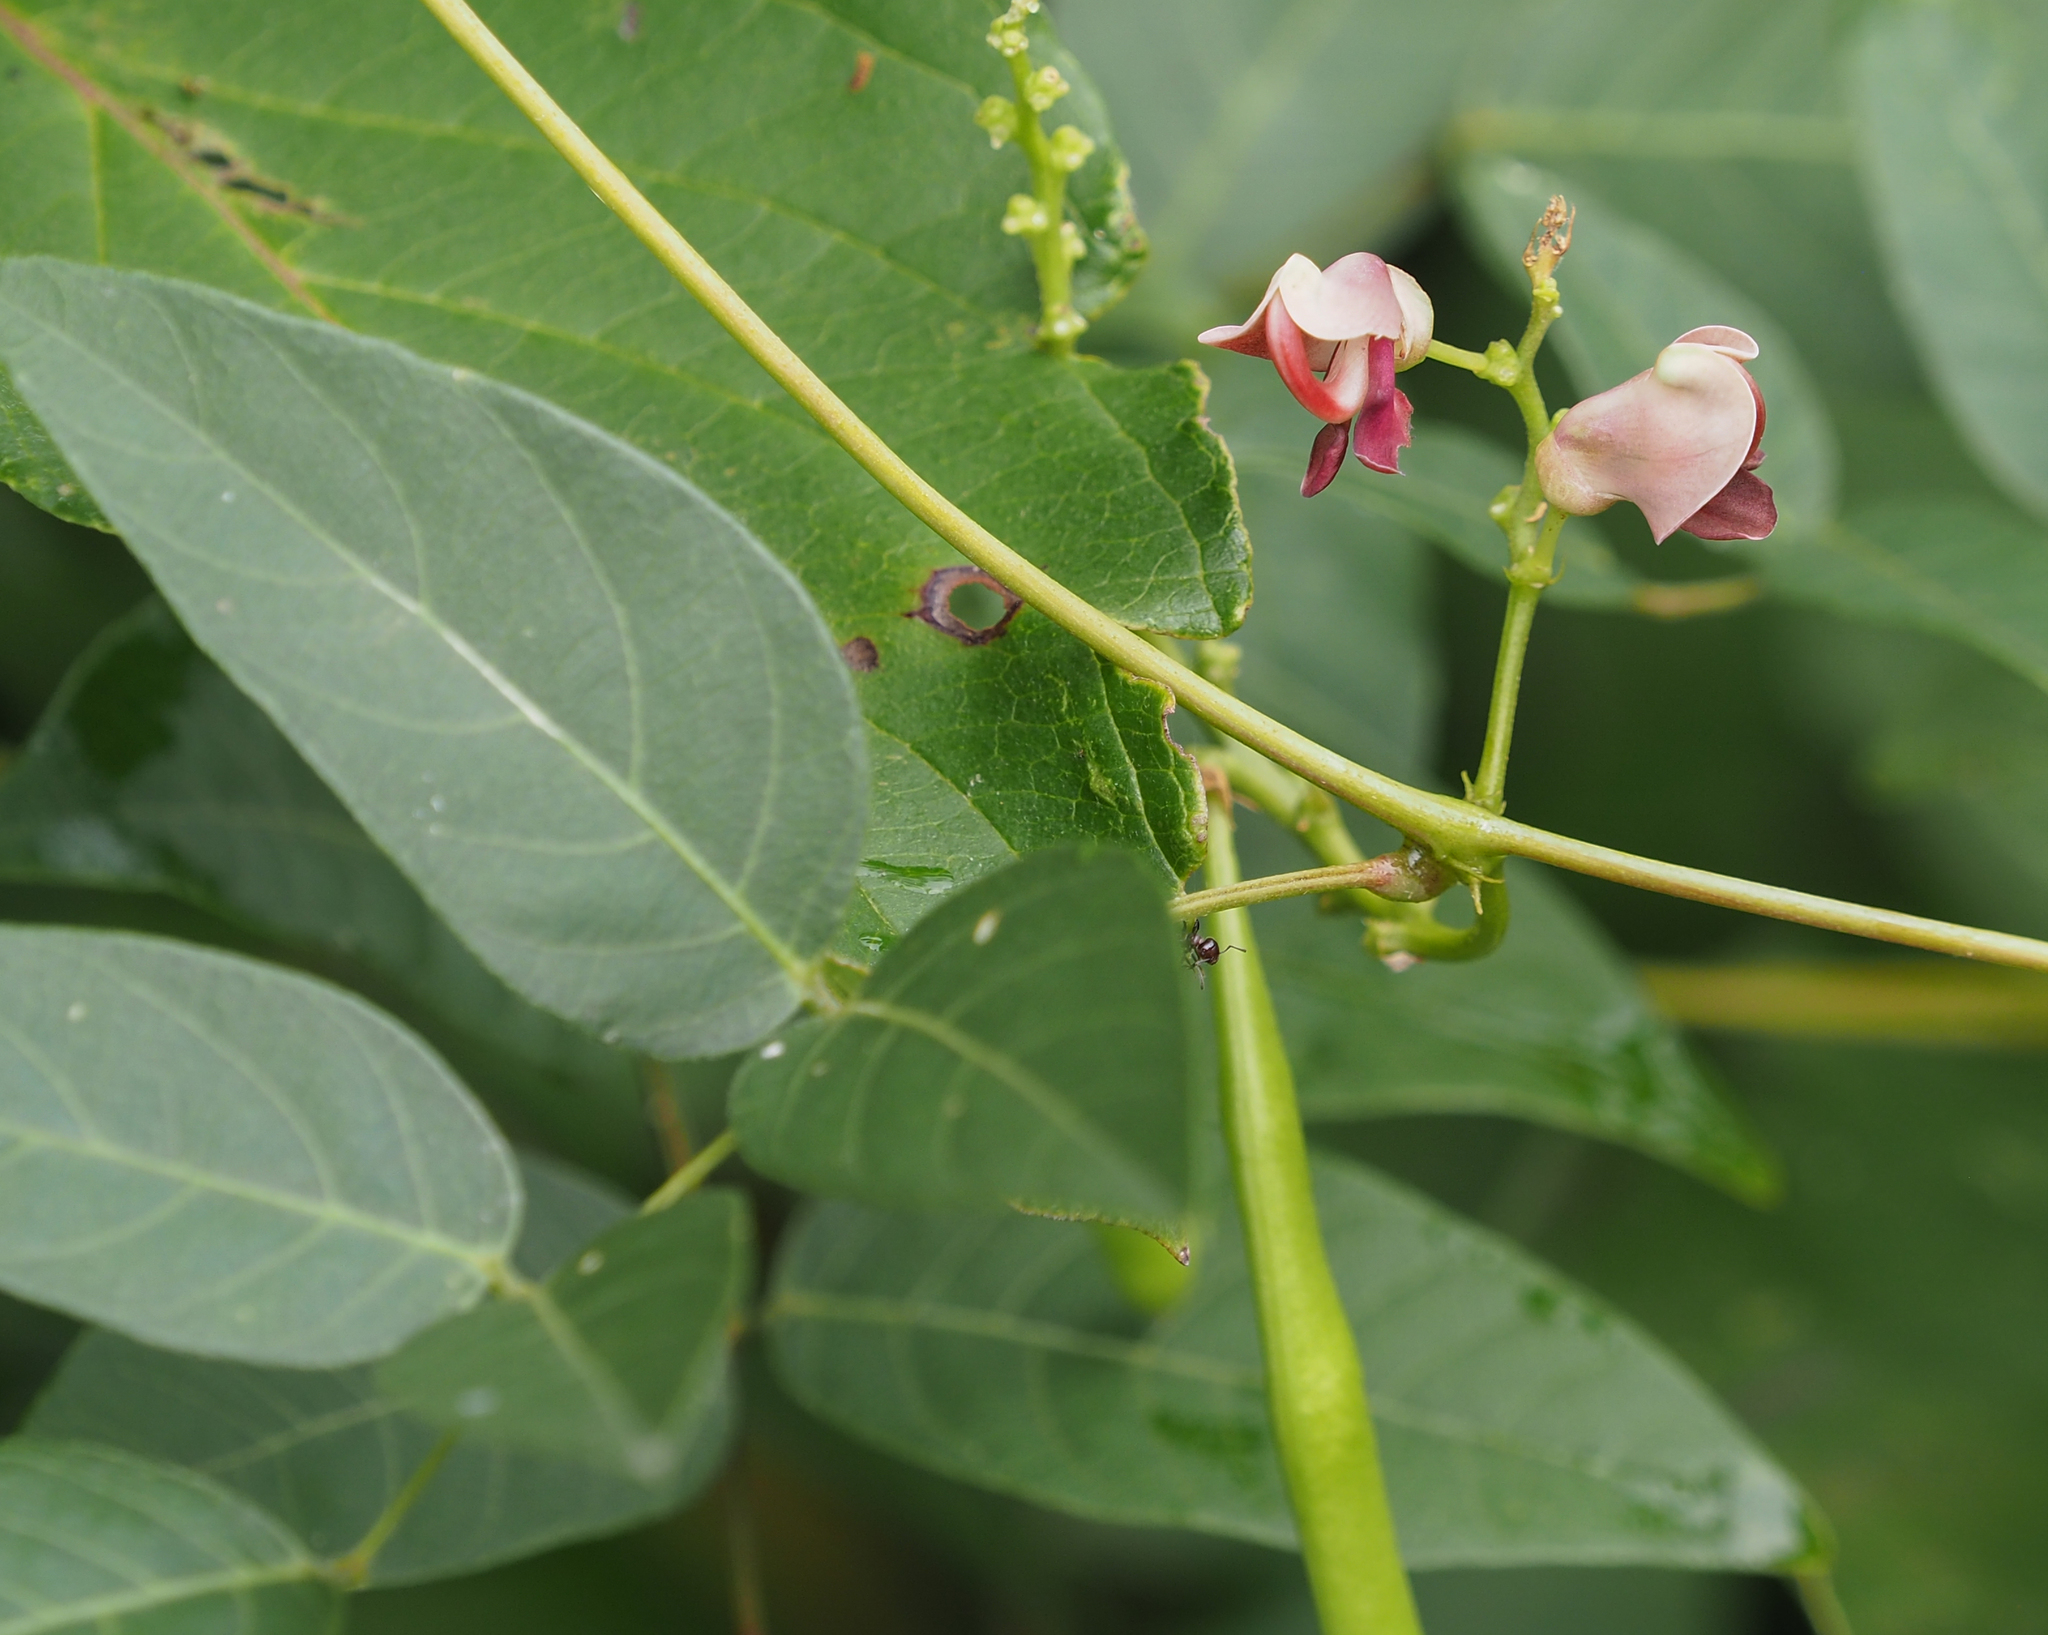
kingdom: Plantae
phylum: Tracheophyta
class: Magnoliopsida
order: Fabales
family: Fabaceae
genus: Apios
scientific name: Apios americana
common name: American potato-bean
